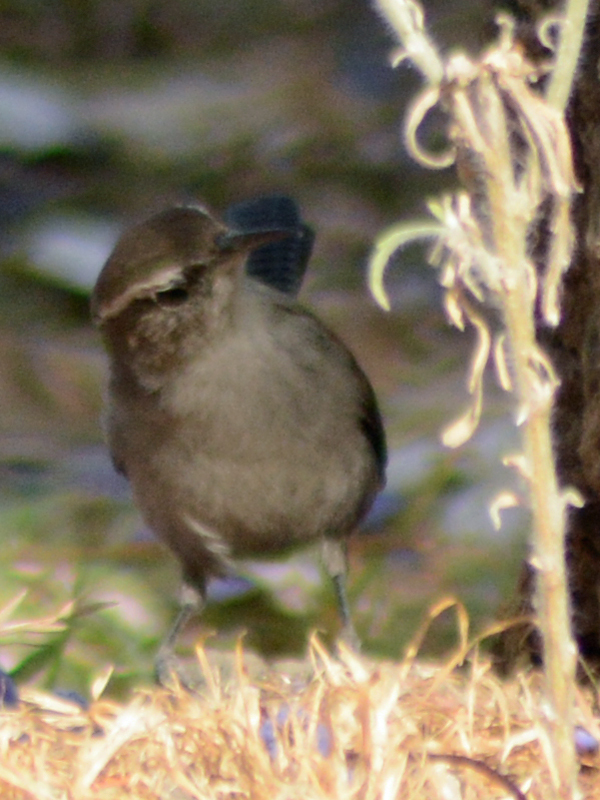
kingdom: Animalia
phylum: Chordata
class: Aves
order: Passeriformes
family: Troglodytidae
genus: Thryomanes
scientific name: Thryomanes bewickii
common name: Bewick's wren
